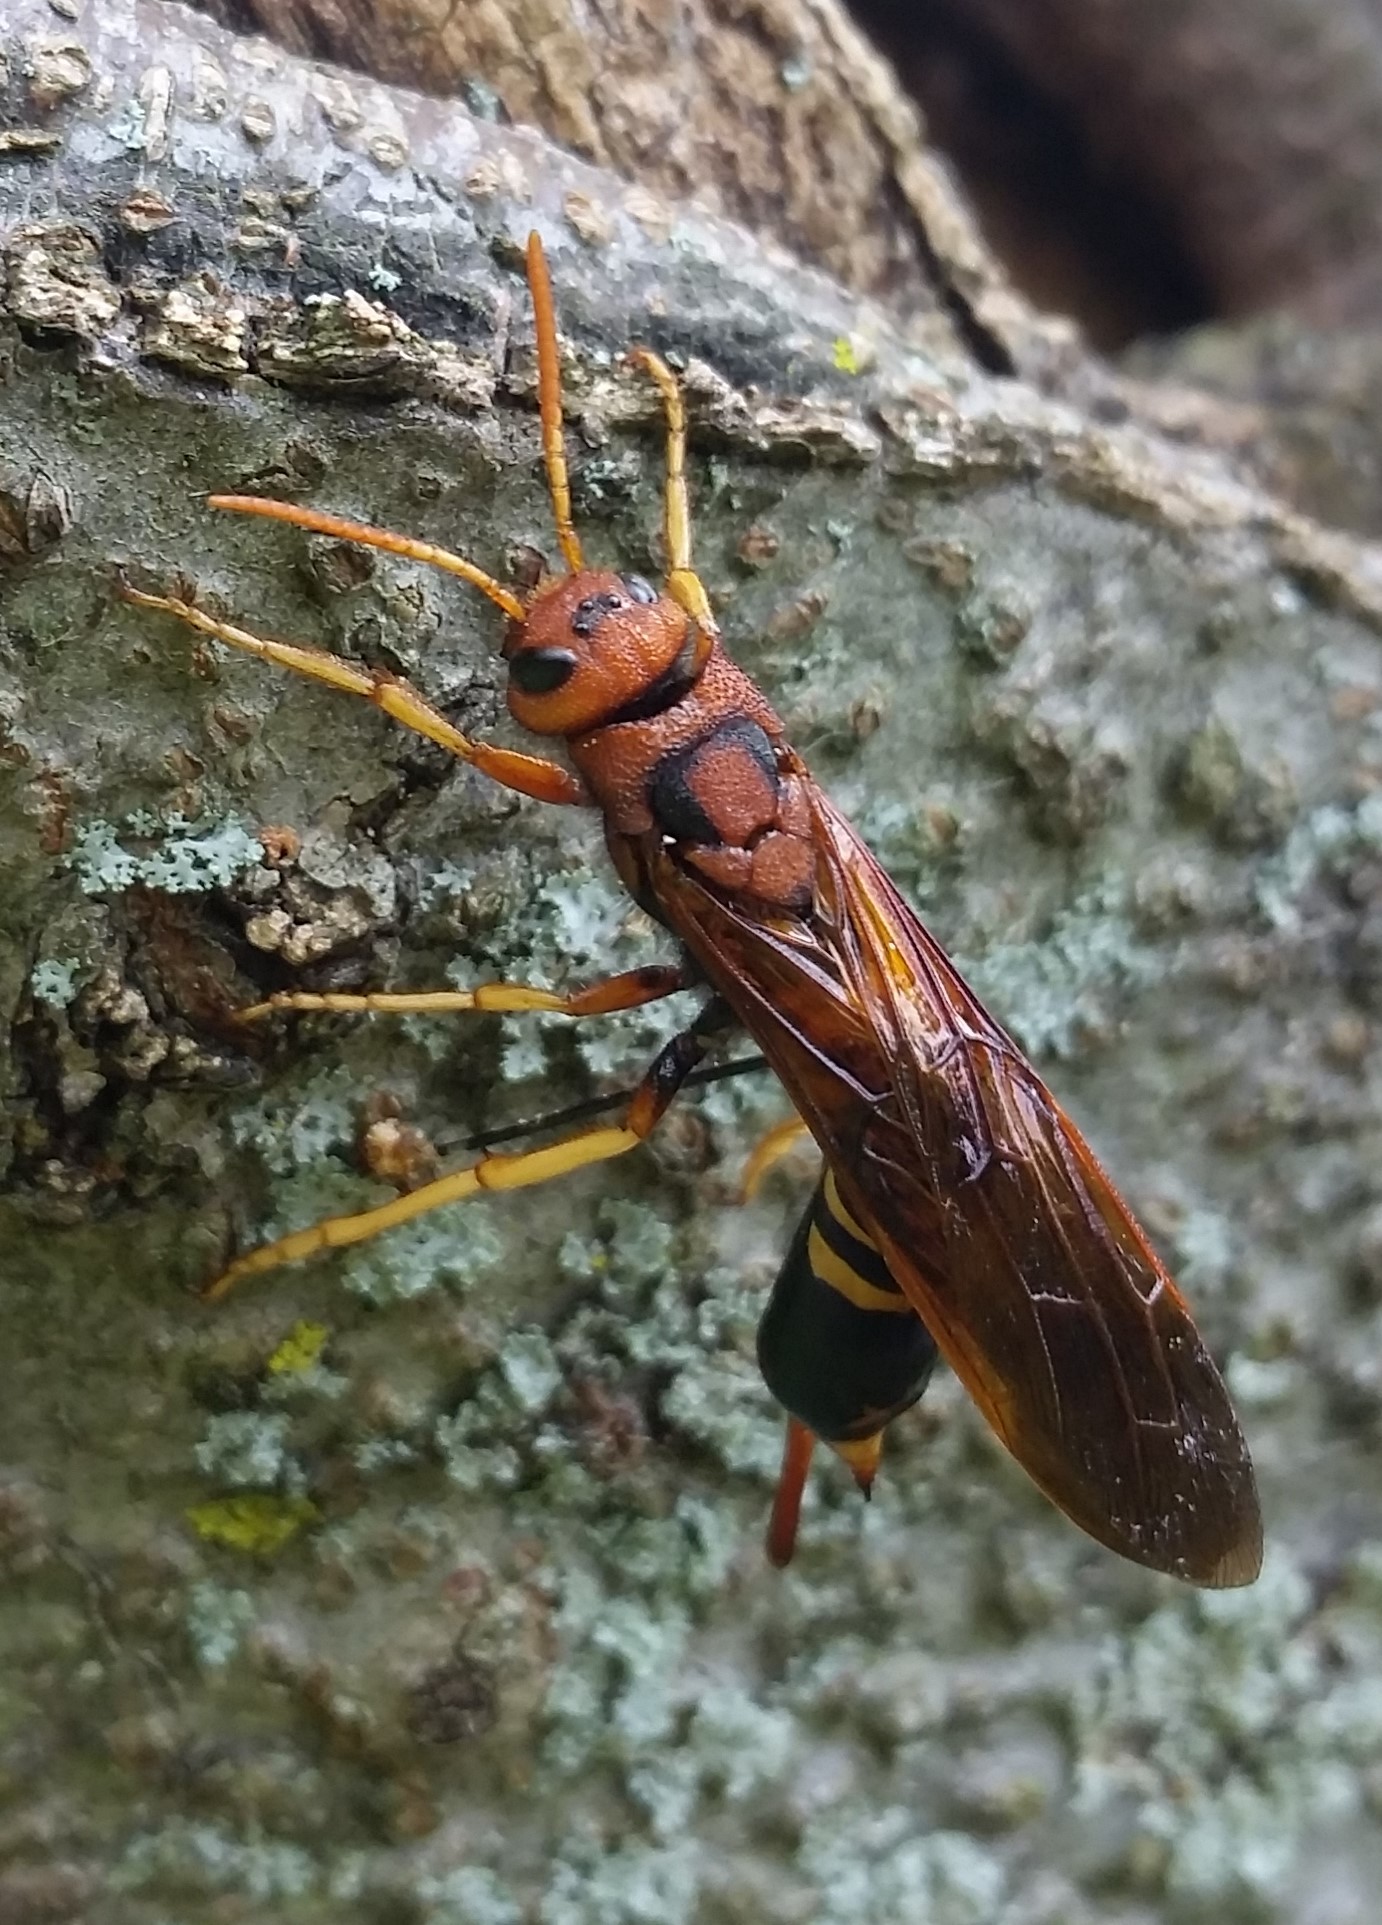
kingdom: Animalia
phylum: Arthropoda
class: Insecta
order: Hymenoptera
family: Siricidae
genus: Tremex
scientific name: Tremex columba
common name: Wasp
